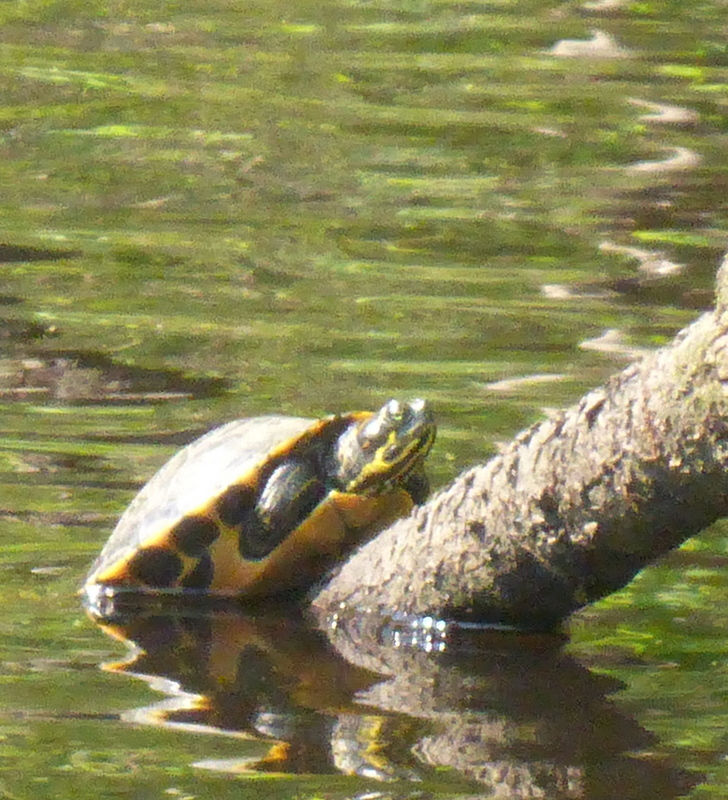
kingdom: Animalia
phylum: Chordata
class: Testudines
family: Emydidae
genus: Pseudemys
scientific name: Pseudemys concinna
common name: Eastern river cooter
